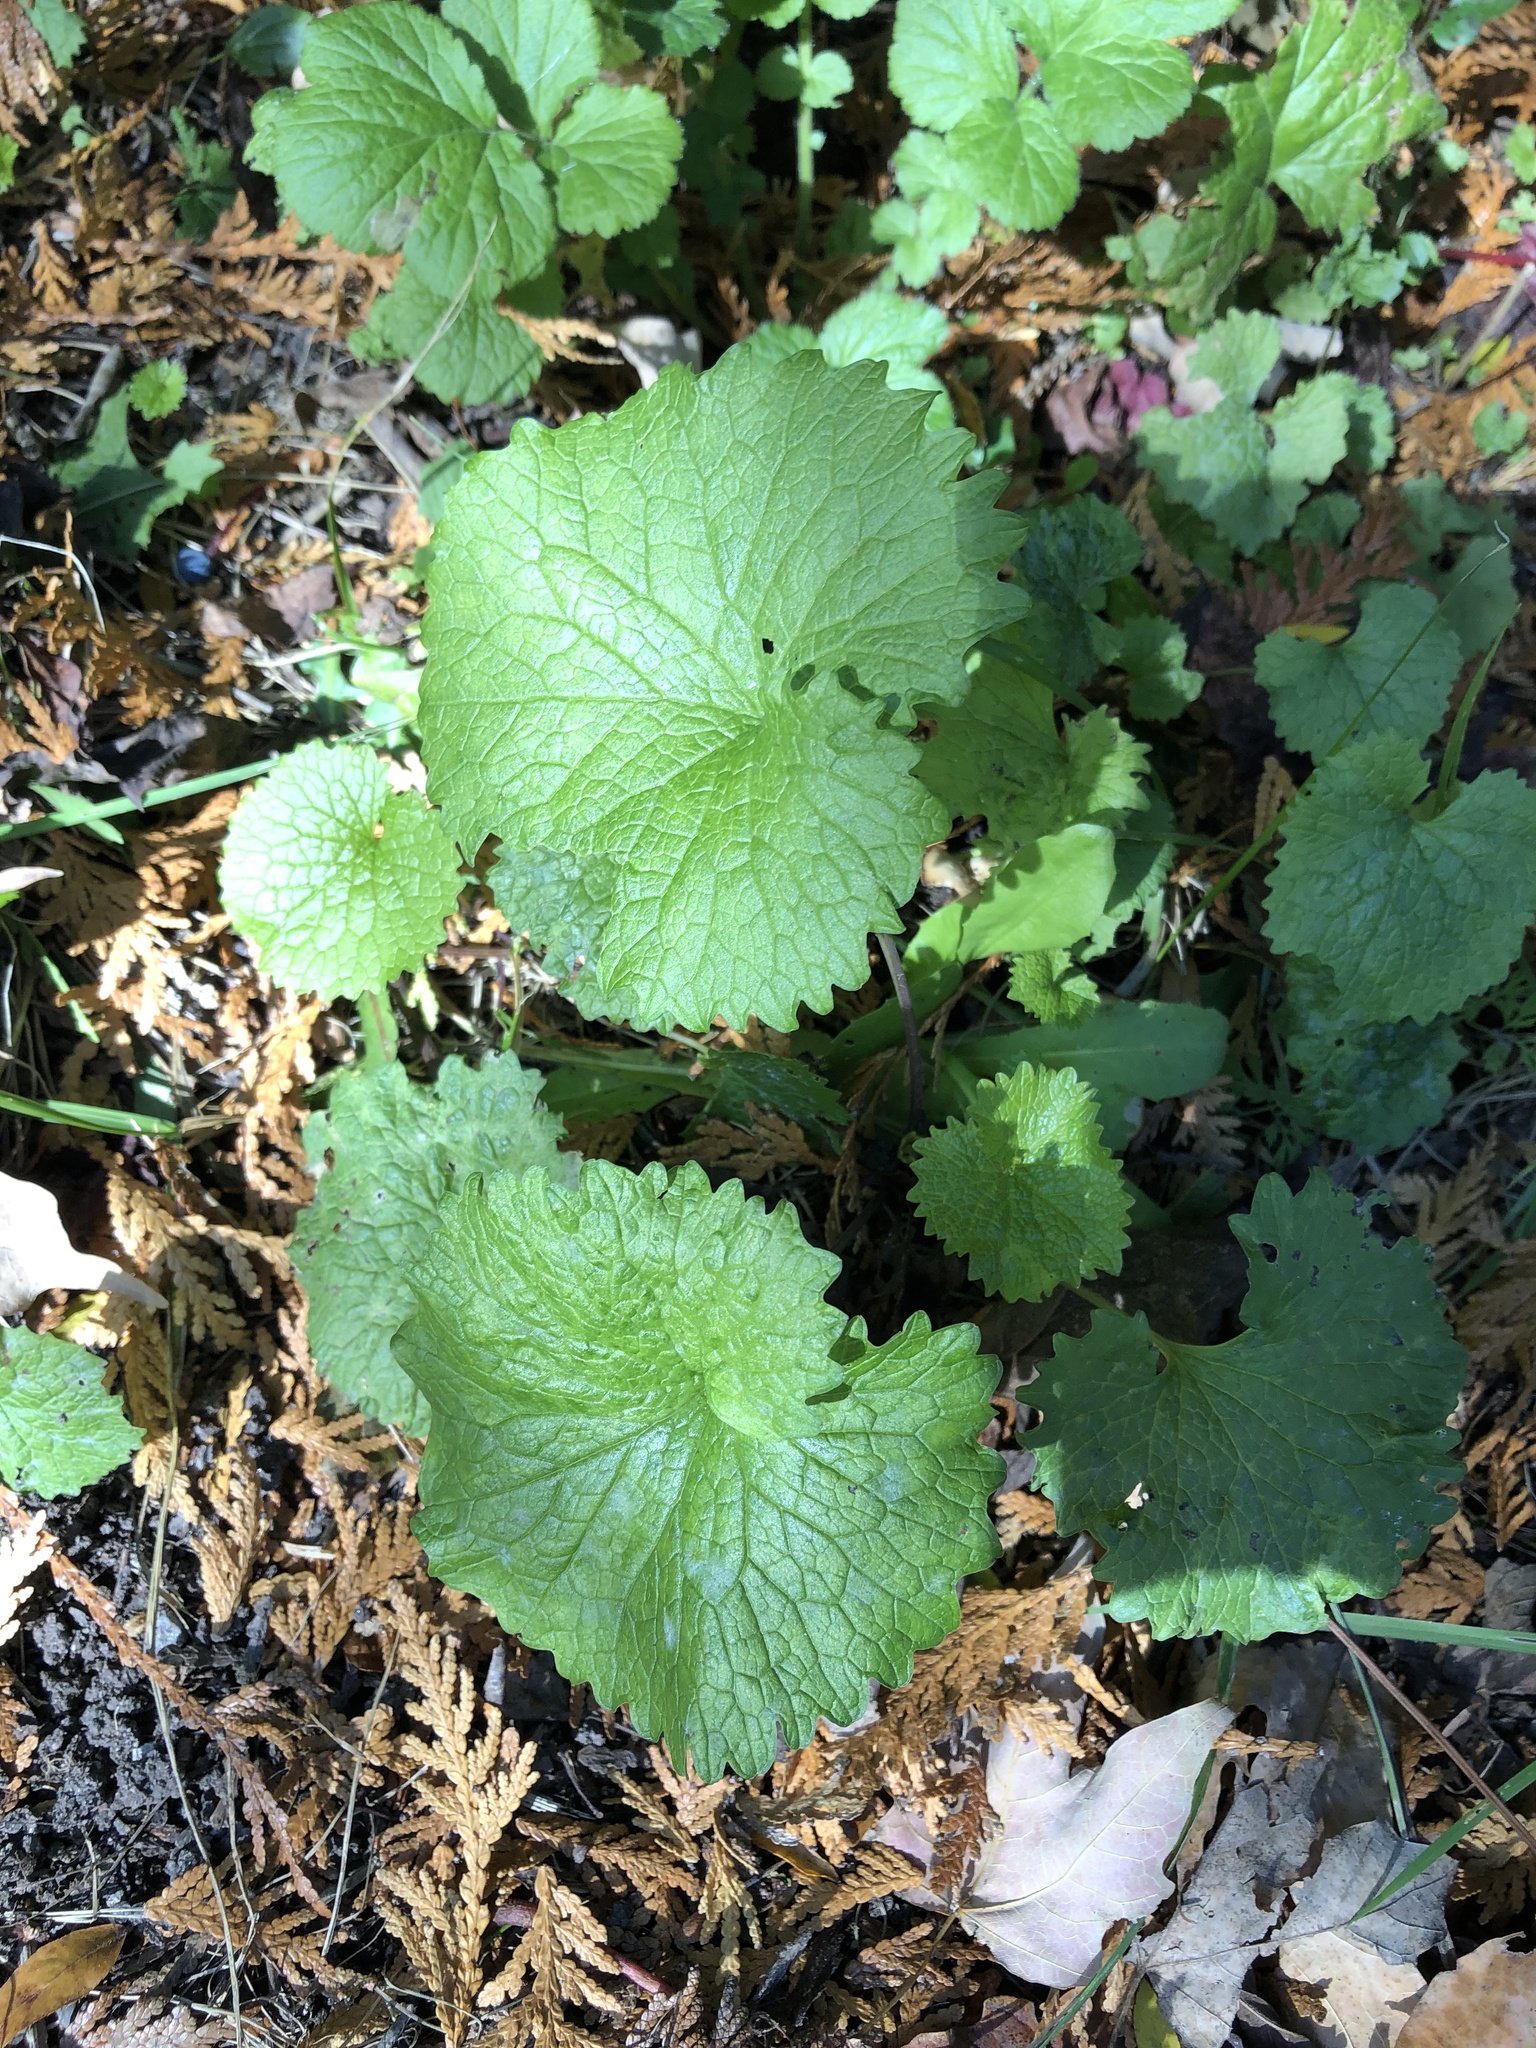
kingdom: Plantae
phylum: Tracheophyta
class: Magnoliopsida
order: Brassicales
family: Brassicaceae
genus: Alliaria
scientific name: Alliaria petiolata
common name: Garlic mustard
